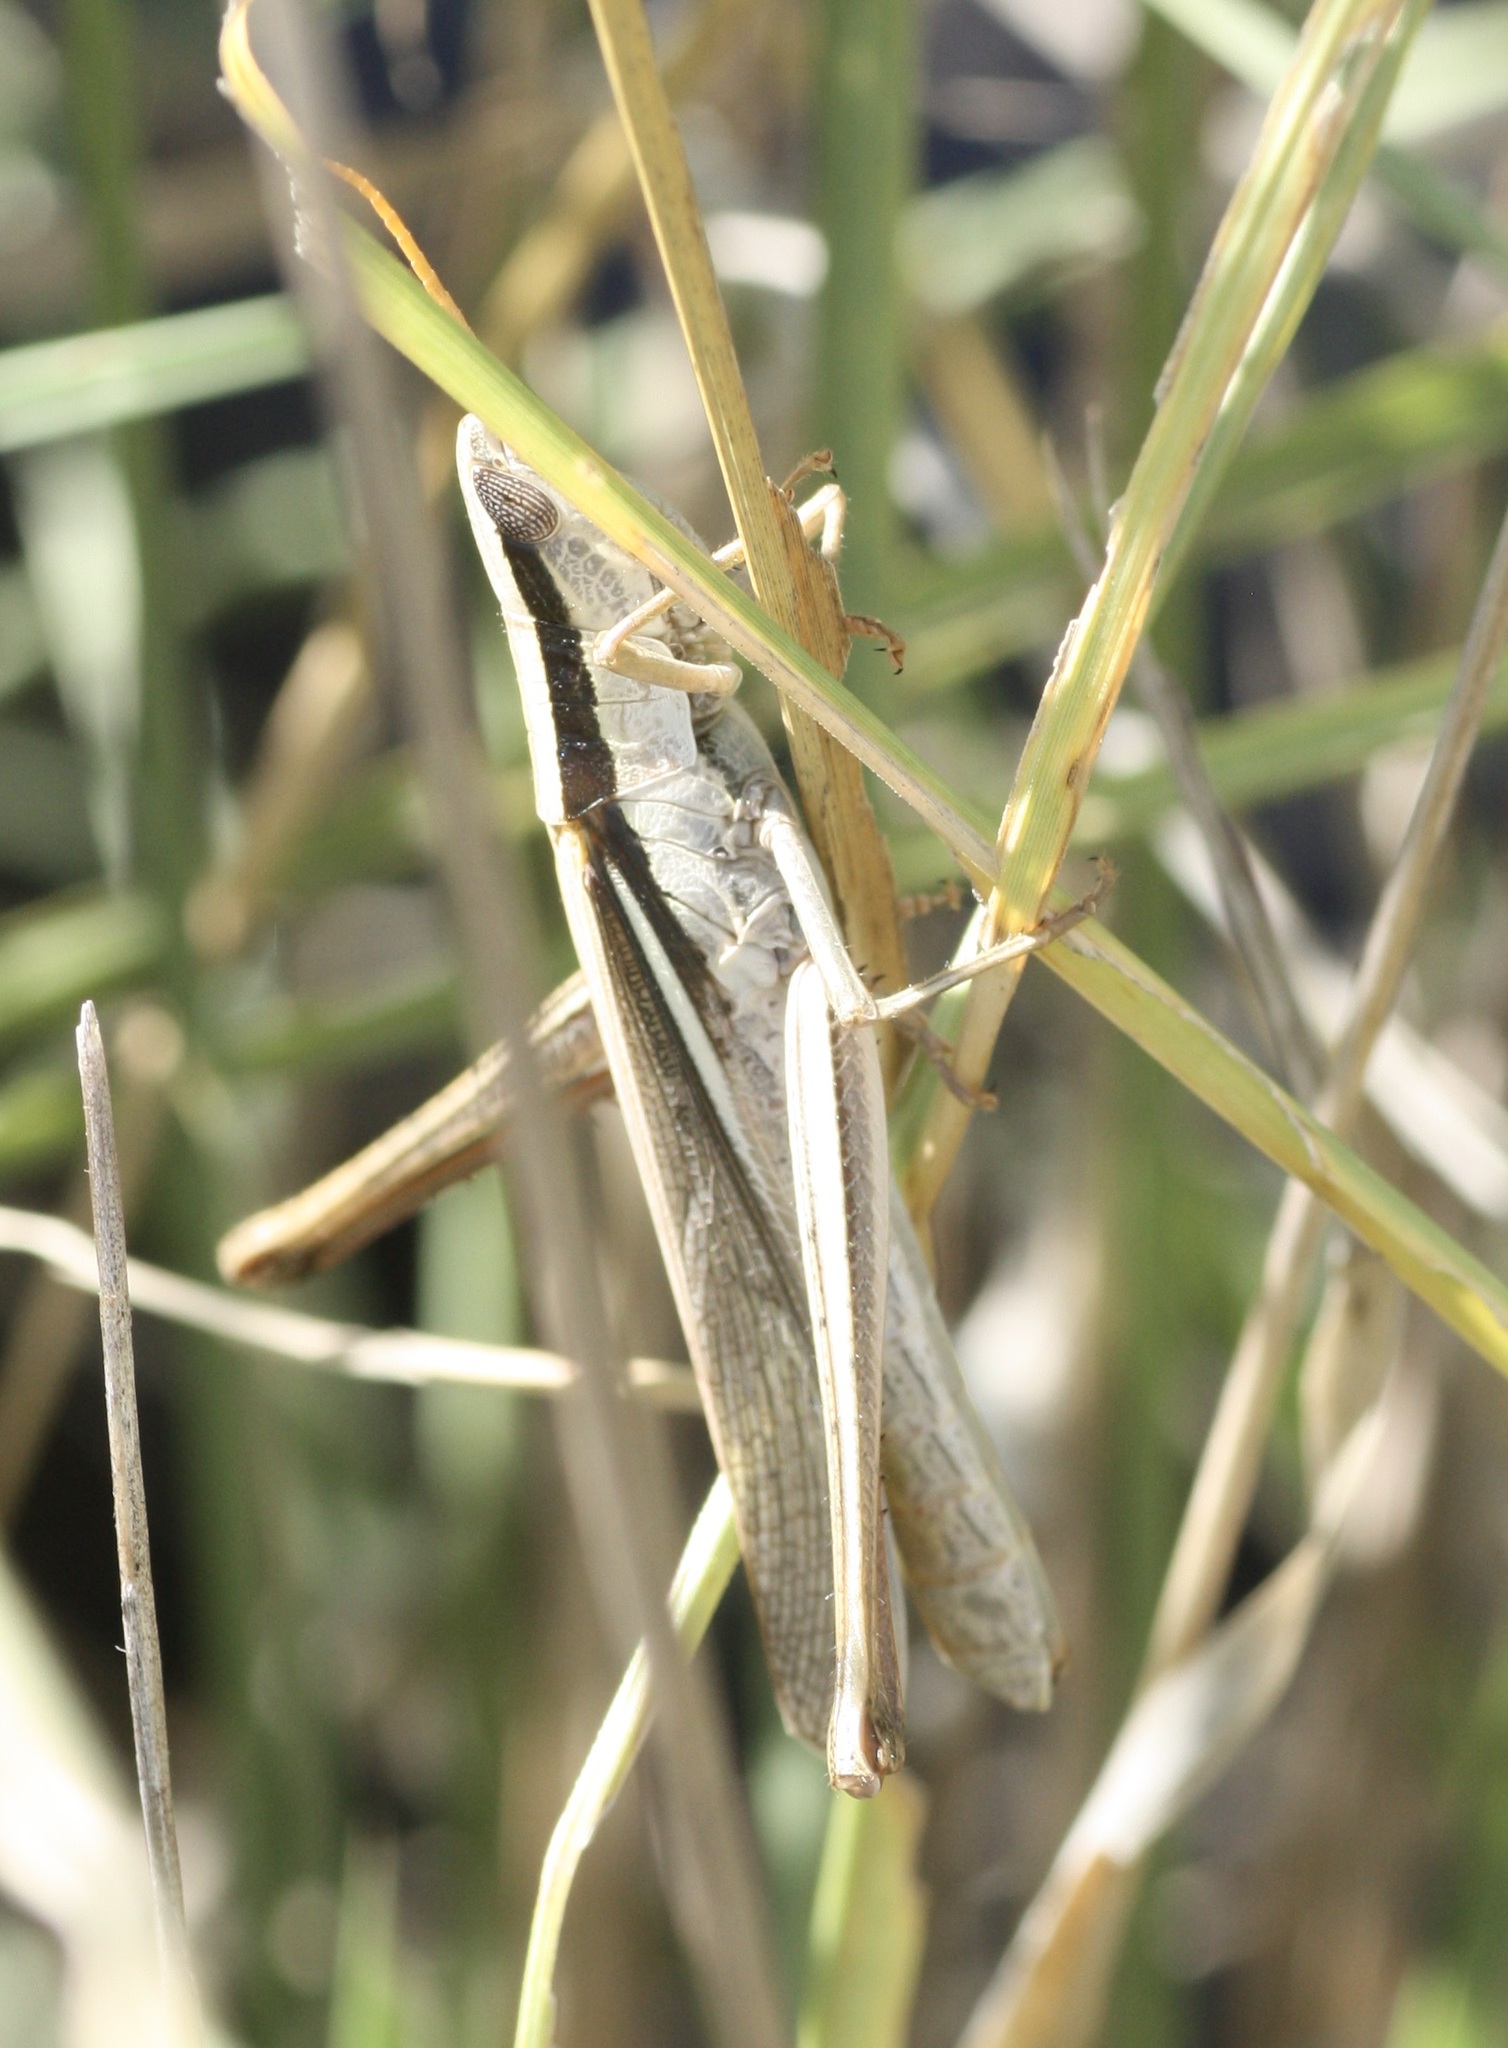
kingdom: Animalia
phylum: Arthropoda
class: Insecta
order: Orthoptera
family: Acrididae
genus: Mermiria
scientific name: Mermiria bivittata
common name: Two-striped mermiria grasshopper
